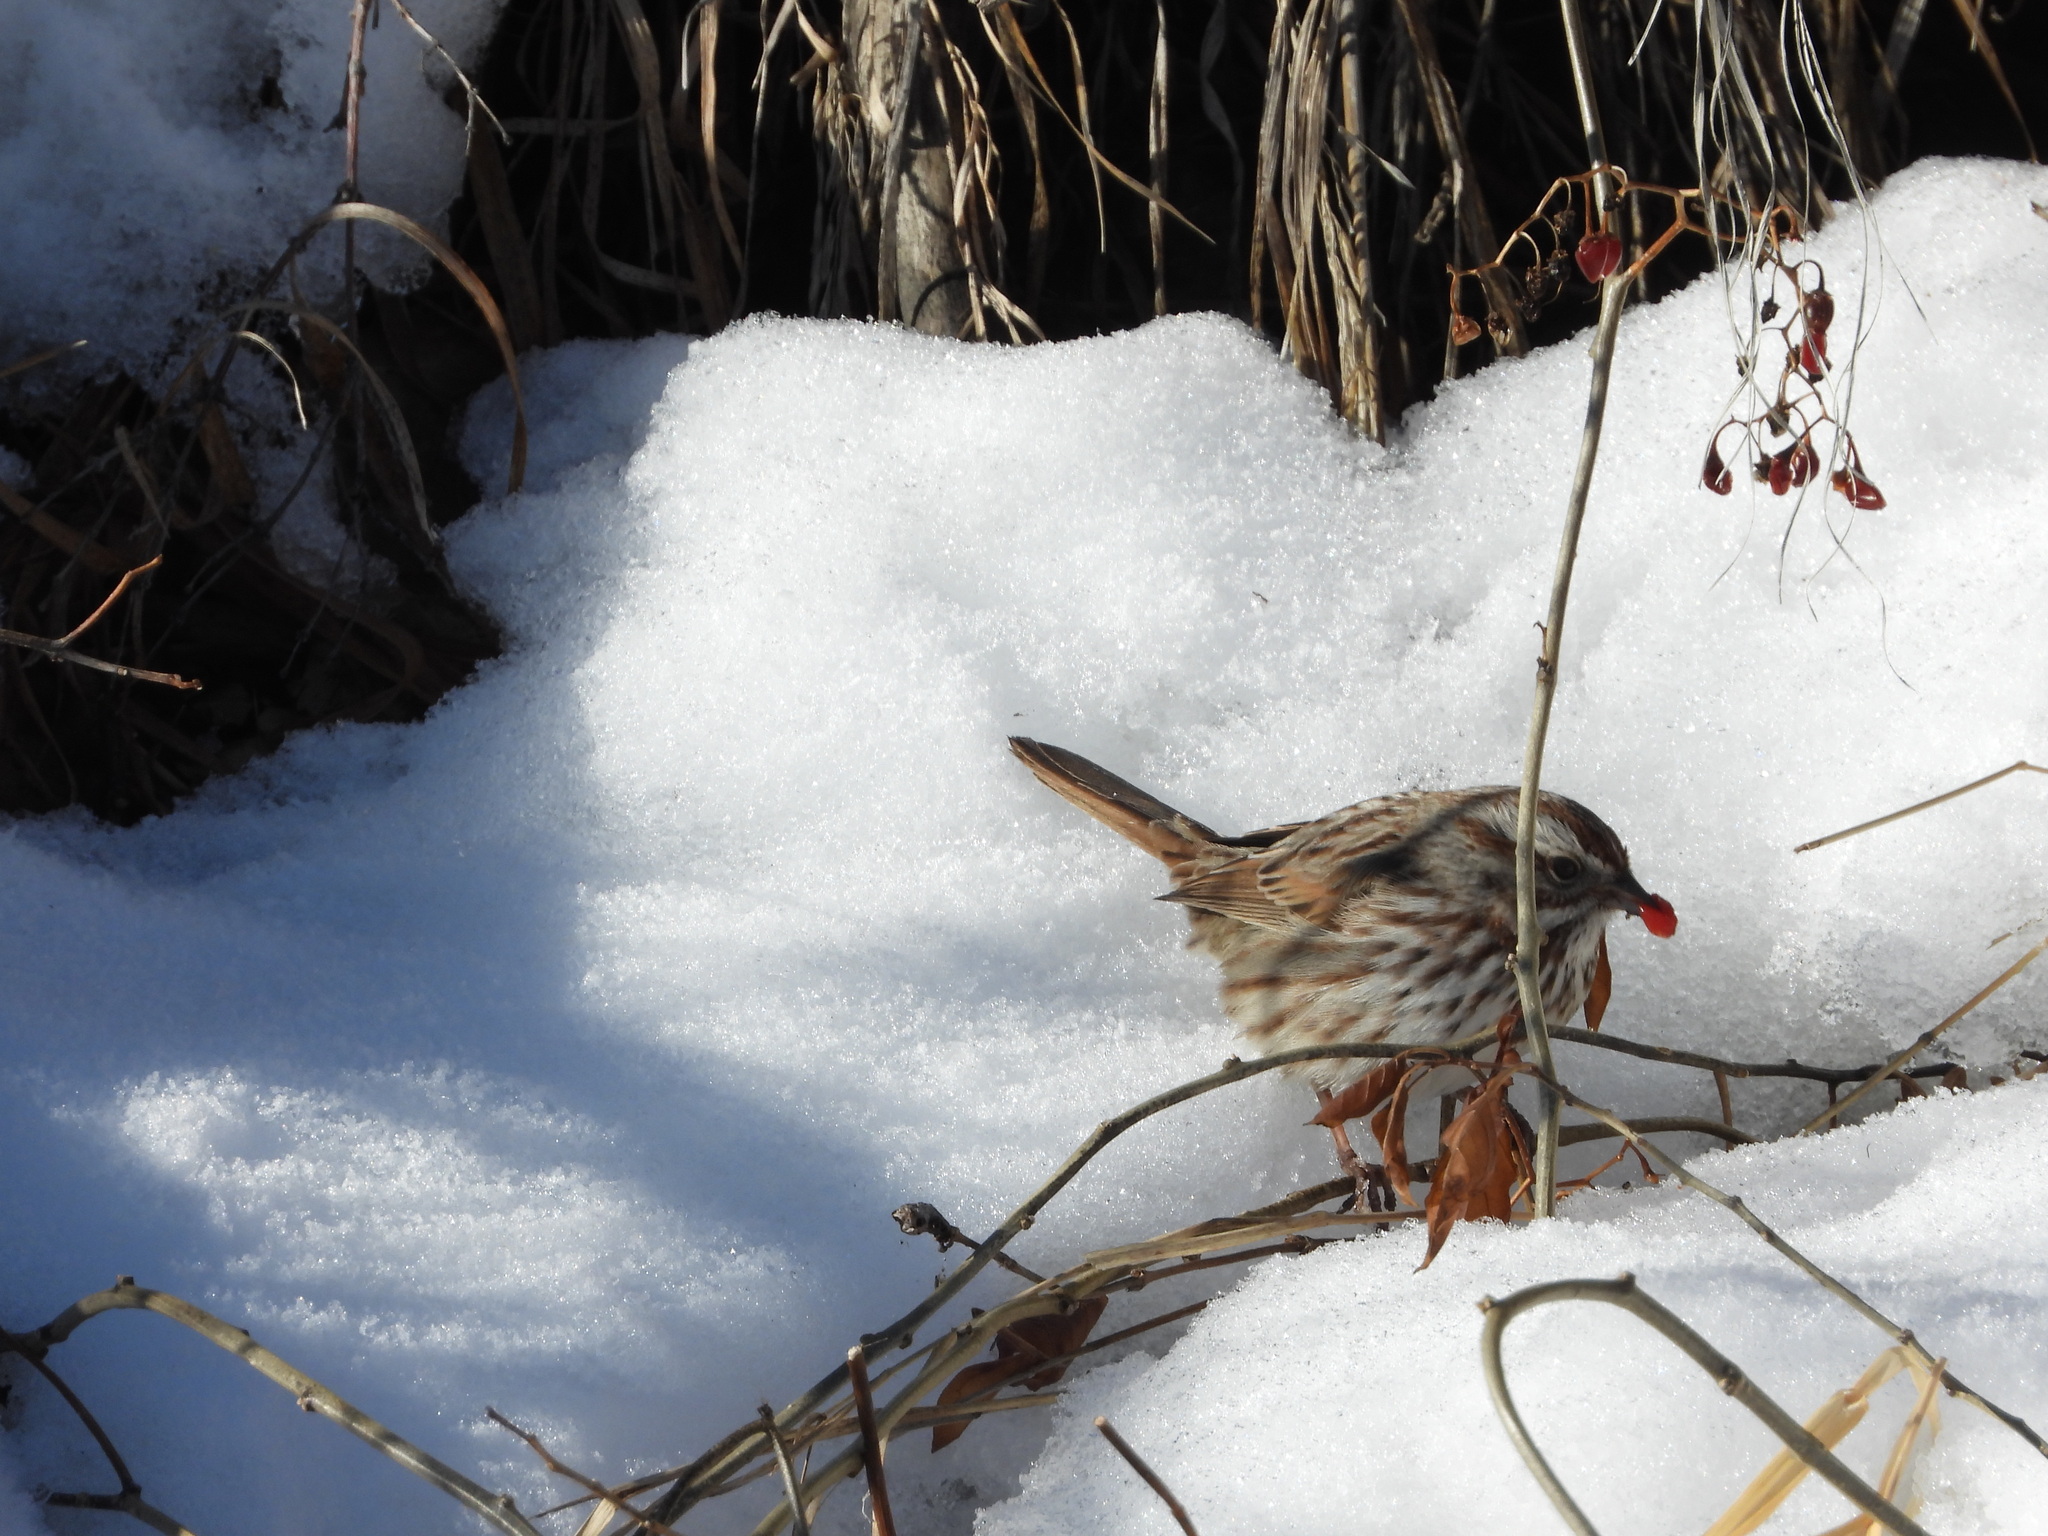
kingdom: Animalia
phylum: Chordata
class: Aves
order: Passeriformes
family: Passerellidae
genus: Melospiza
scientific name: Melospiza melodia
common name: Song sparrow
